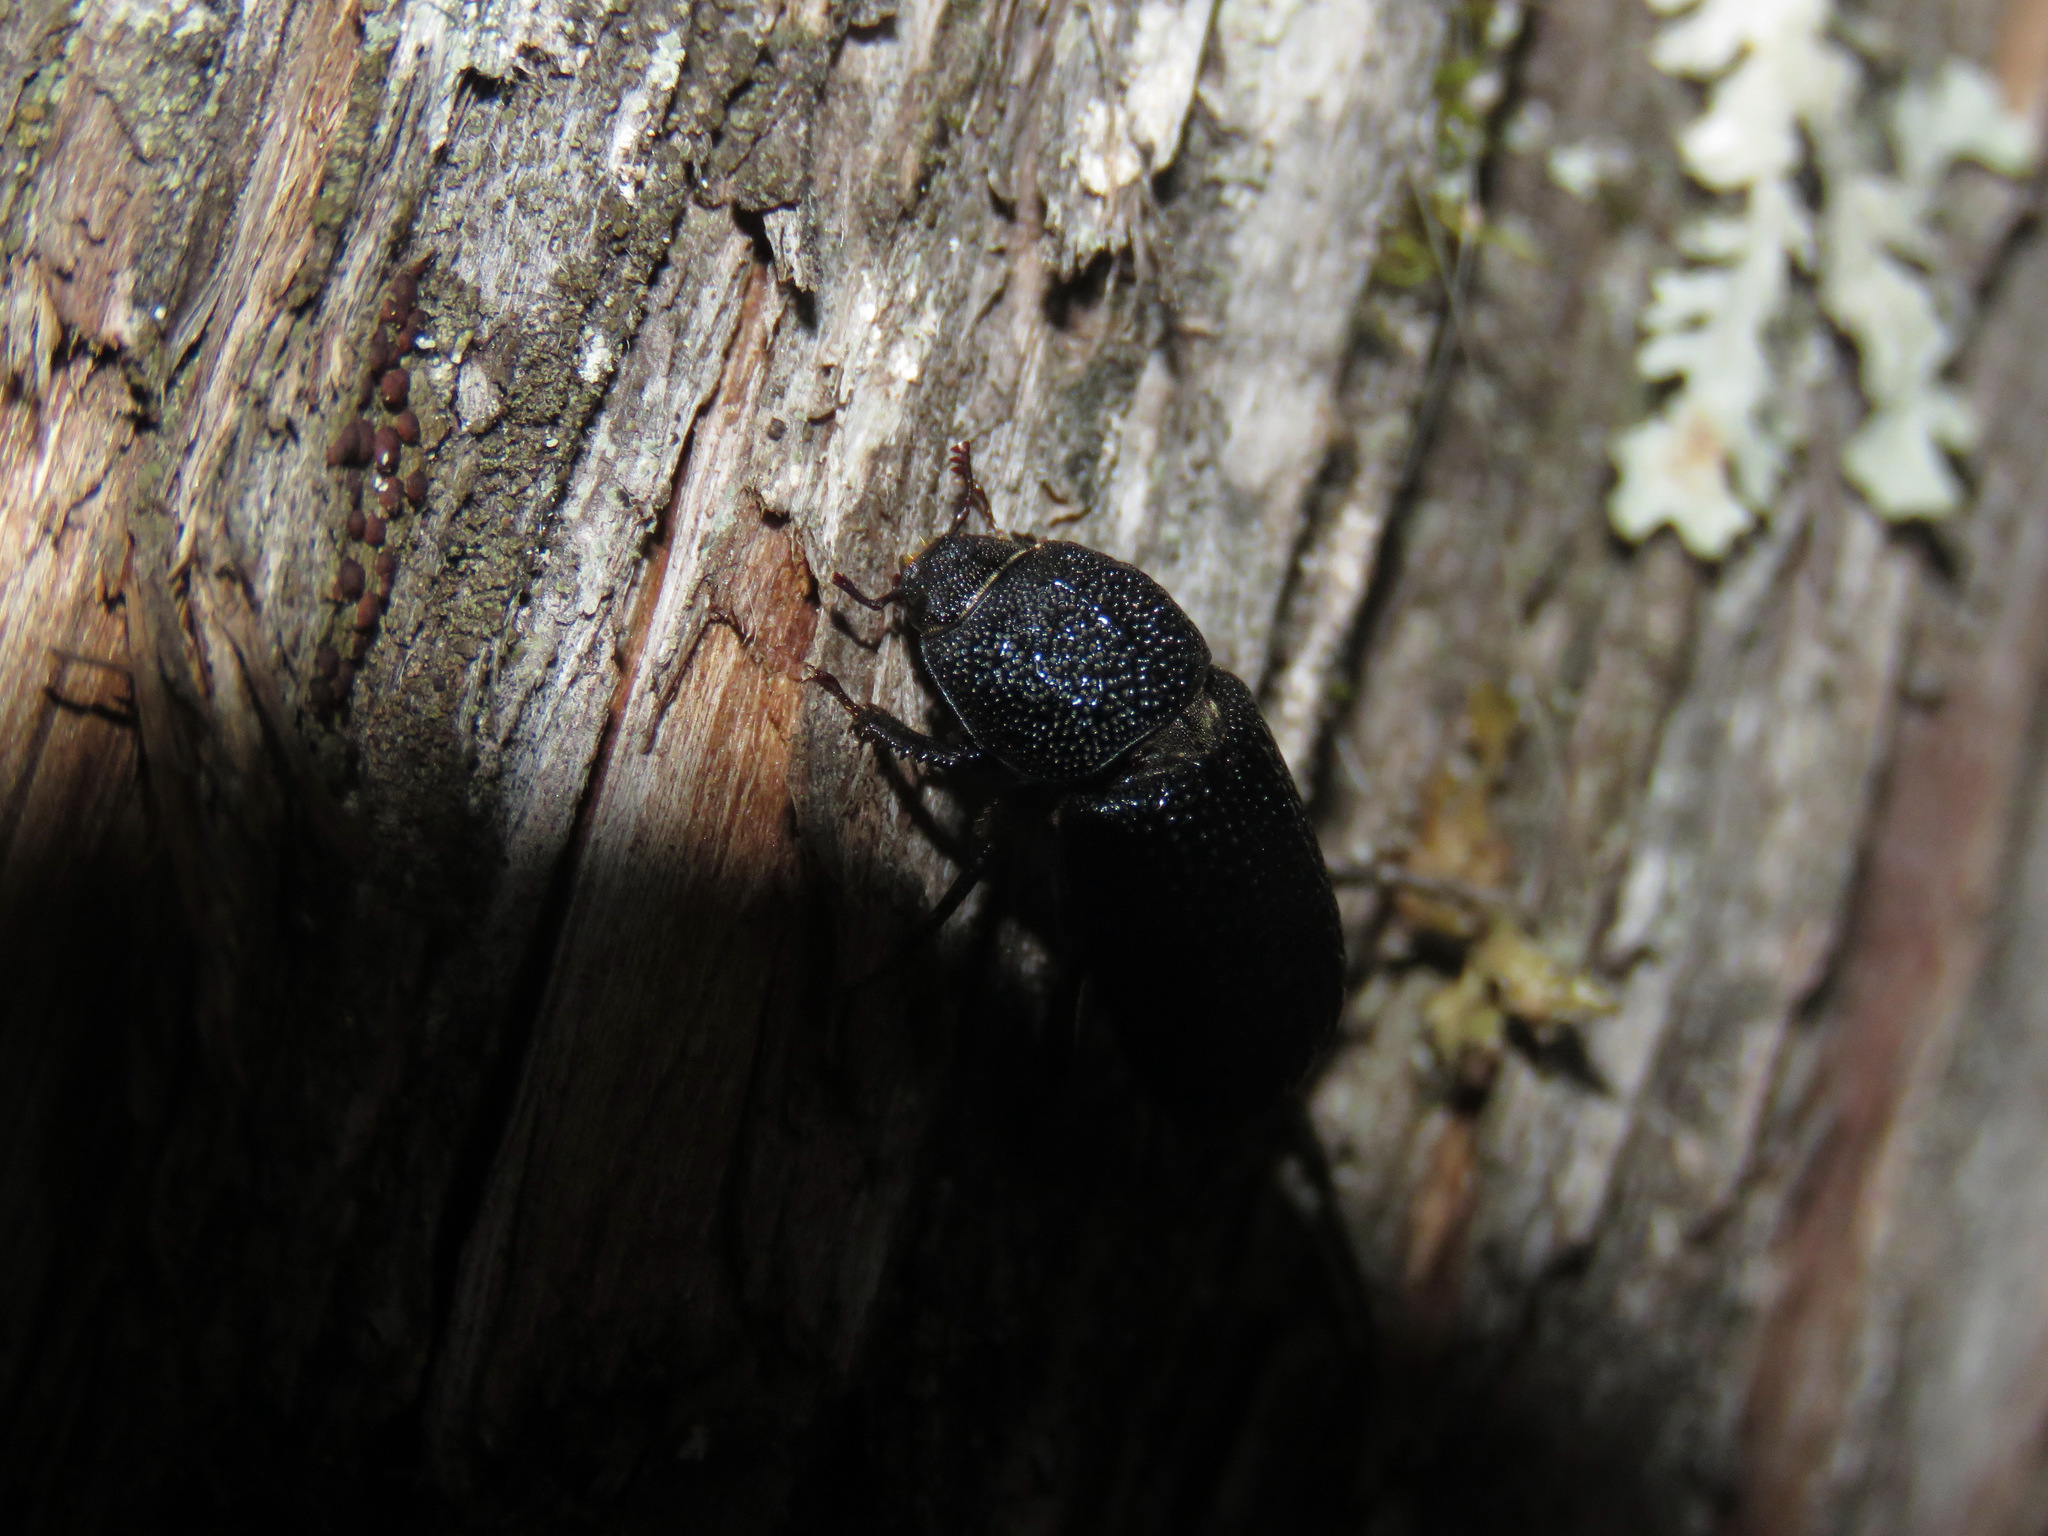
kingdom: Animalia
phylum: Arthropoda
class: Insecta
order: Coleoptera
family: Lucanidae
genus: Sinodendron
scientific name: Sinodendron rugosum
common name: Rugose stag beelte
